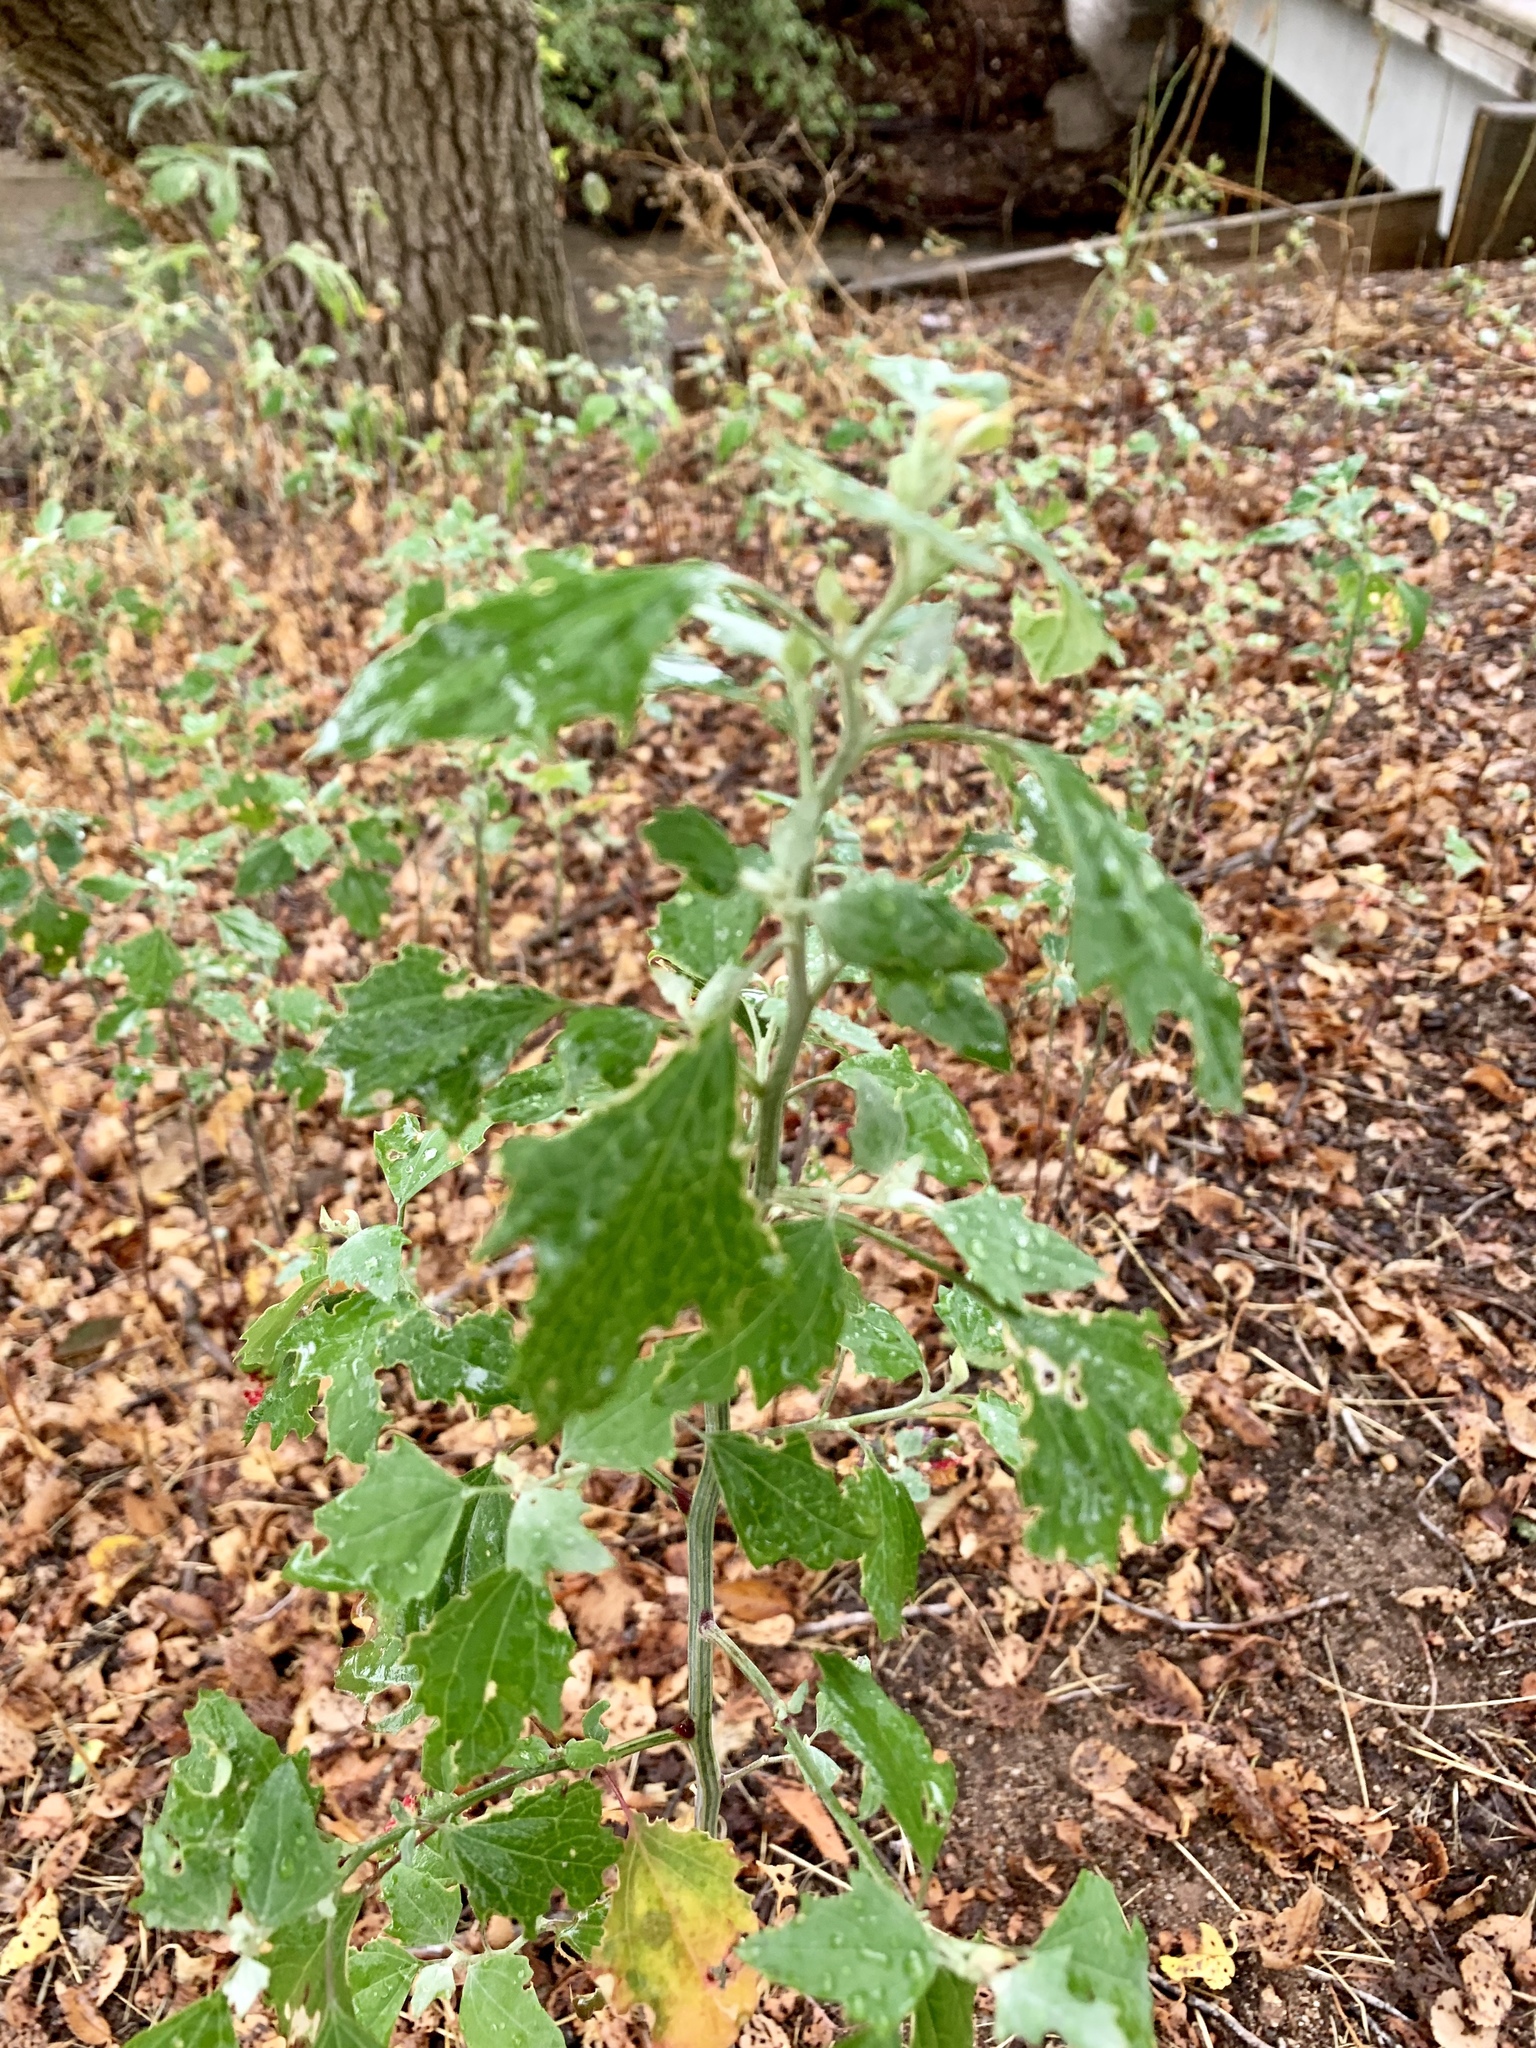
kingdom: Plantae
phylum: Tracheophyta
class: Magnoliopsida
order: Caryophyllales
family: Amaranthaceae
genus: Chenopodium
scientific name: Chenopodium album
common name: Fat-hen
